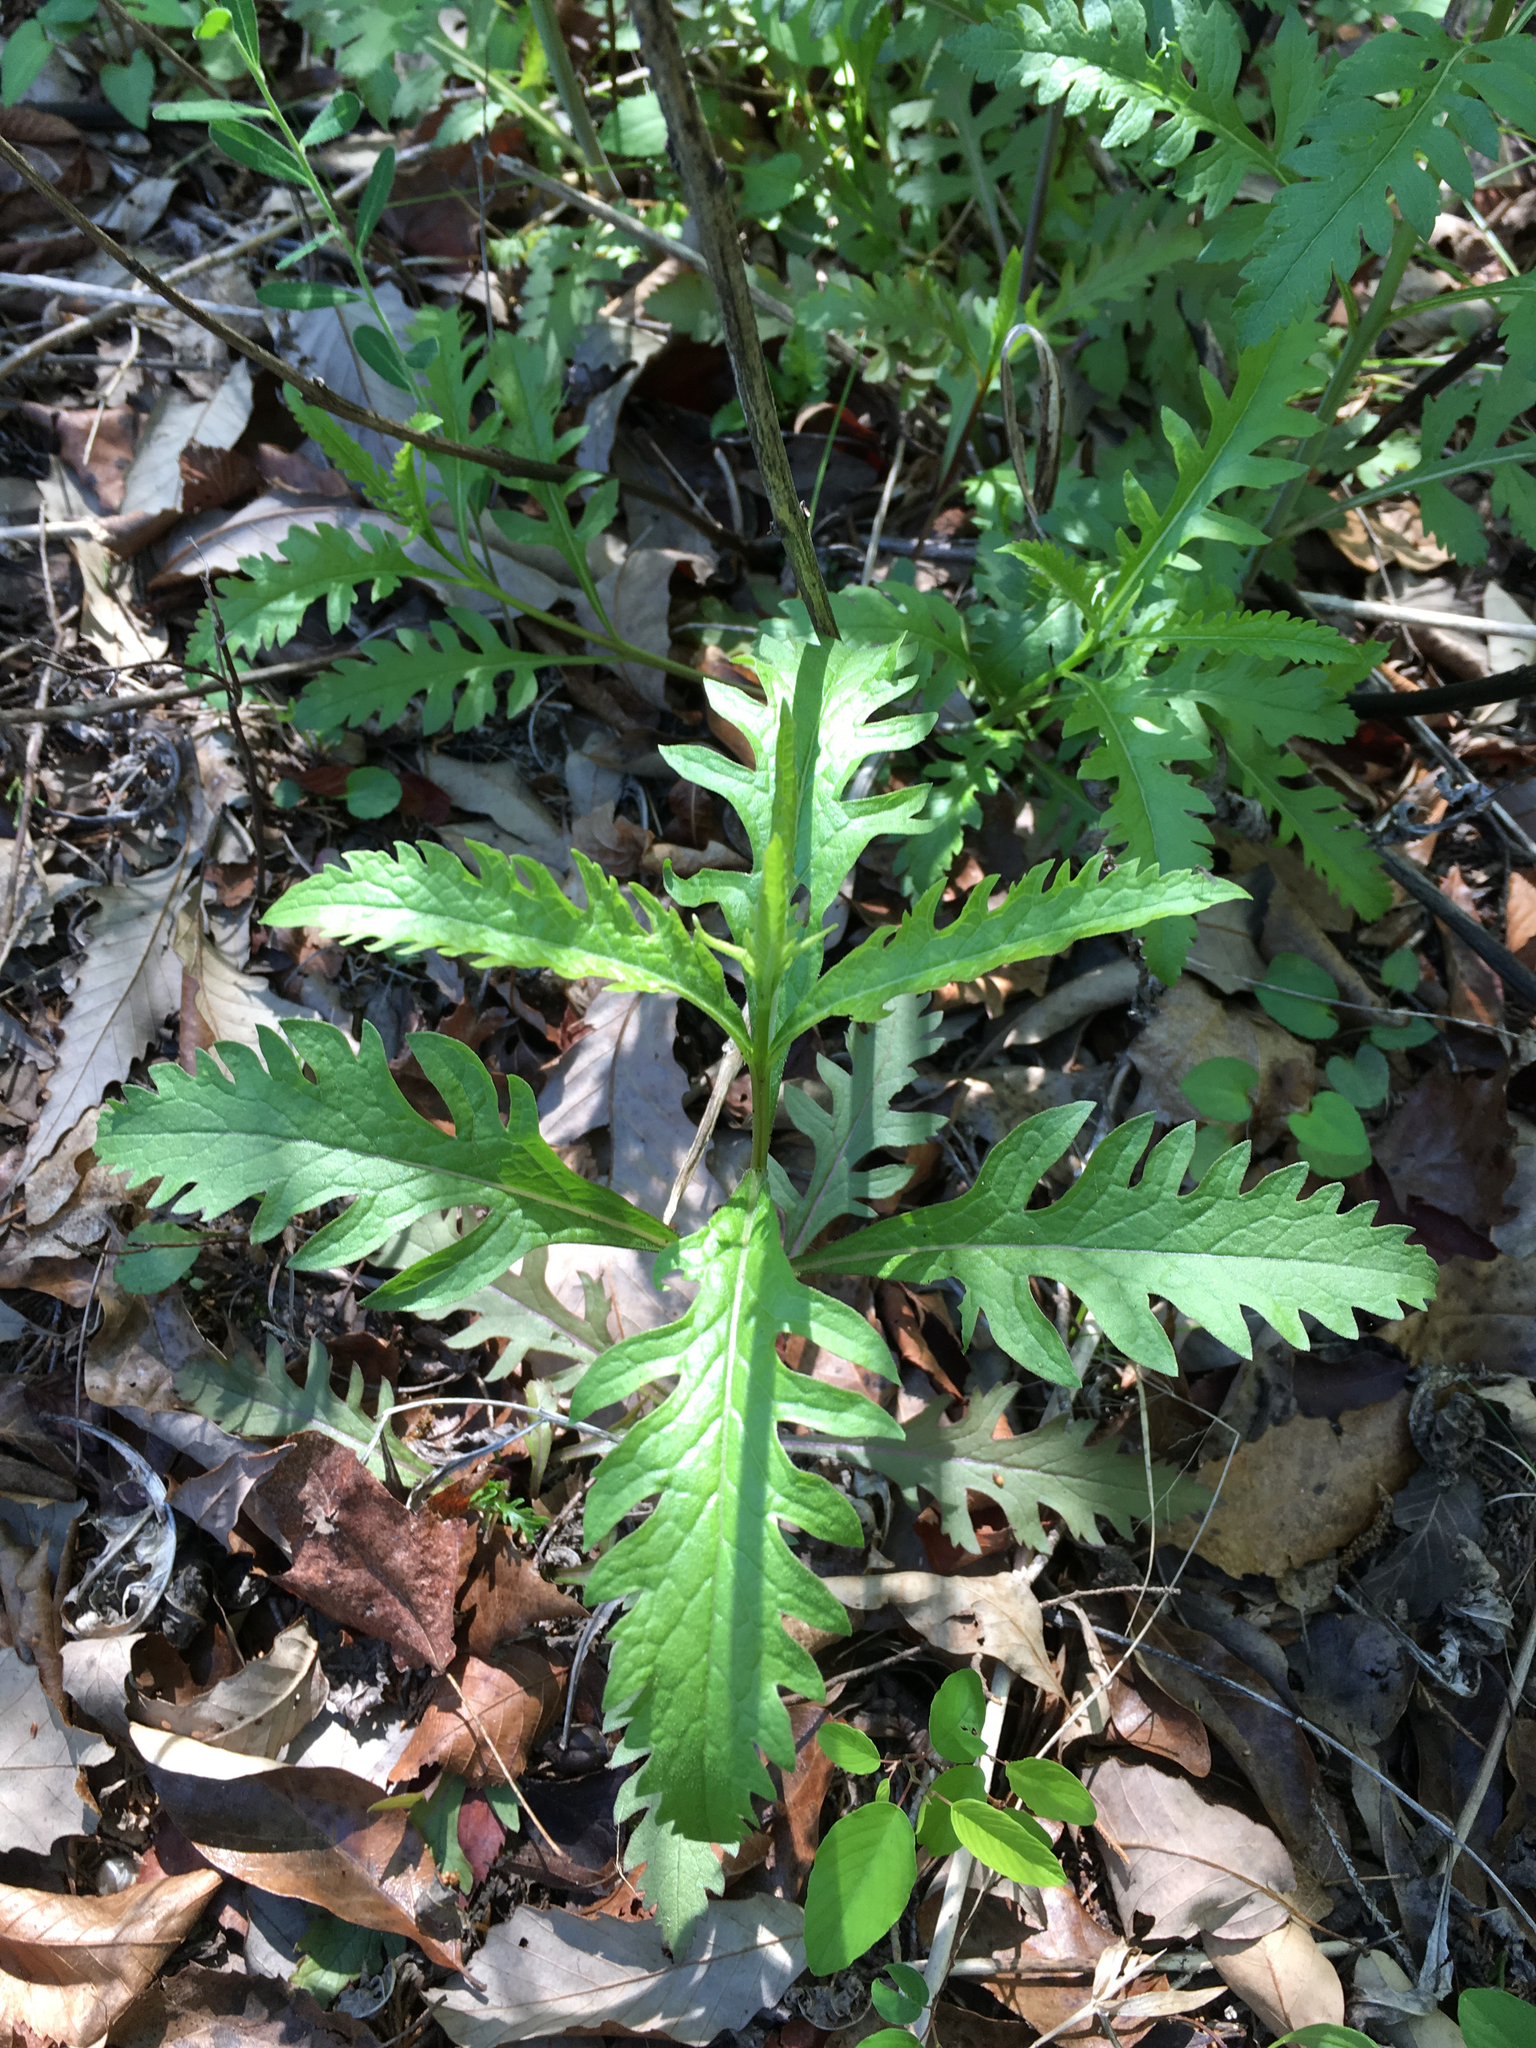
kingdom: Plantae
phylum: Tracheophyta
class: Magnoliopsida
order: Lamiales
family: Orobanchaceae
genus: Dasistoma
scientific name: Dasistoma macrophyllum
